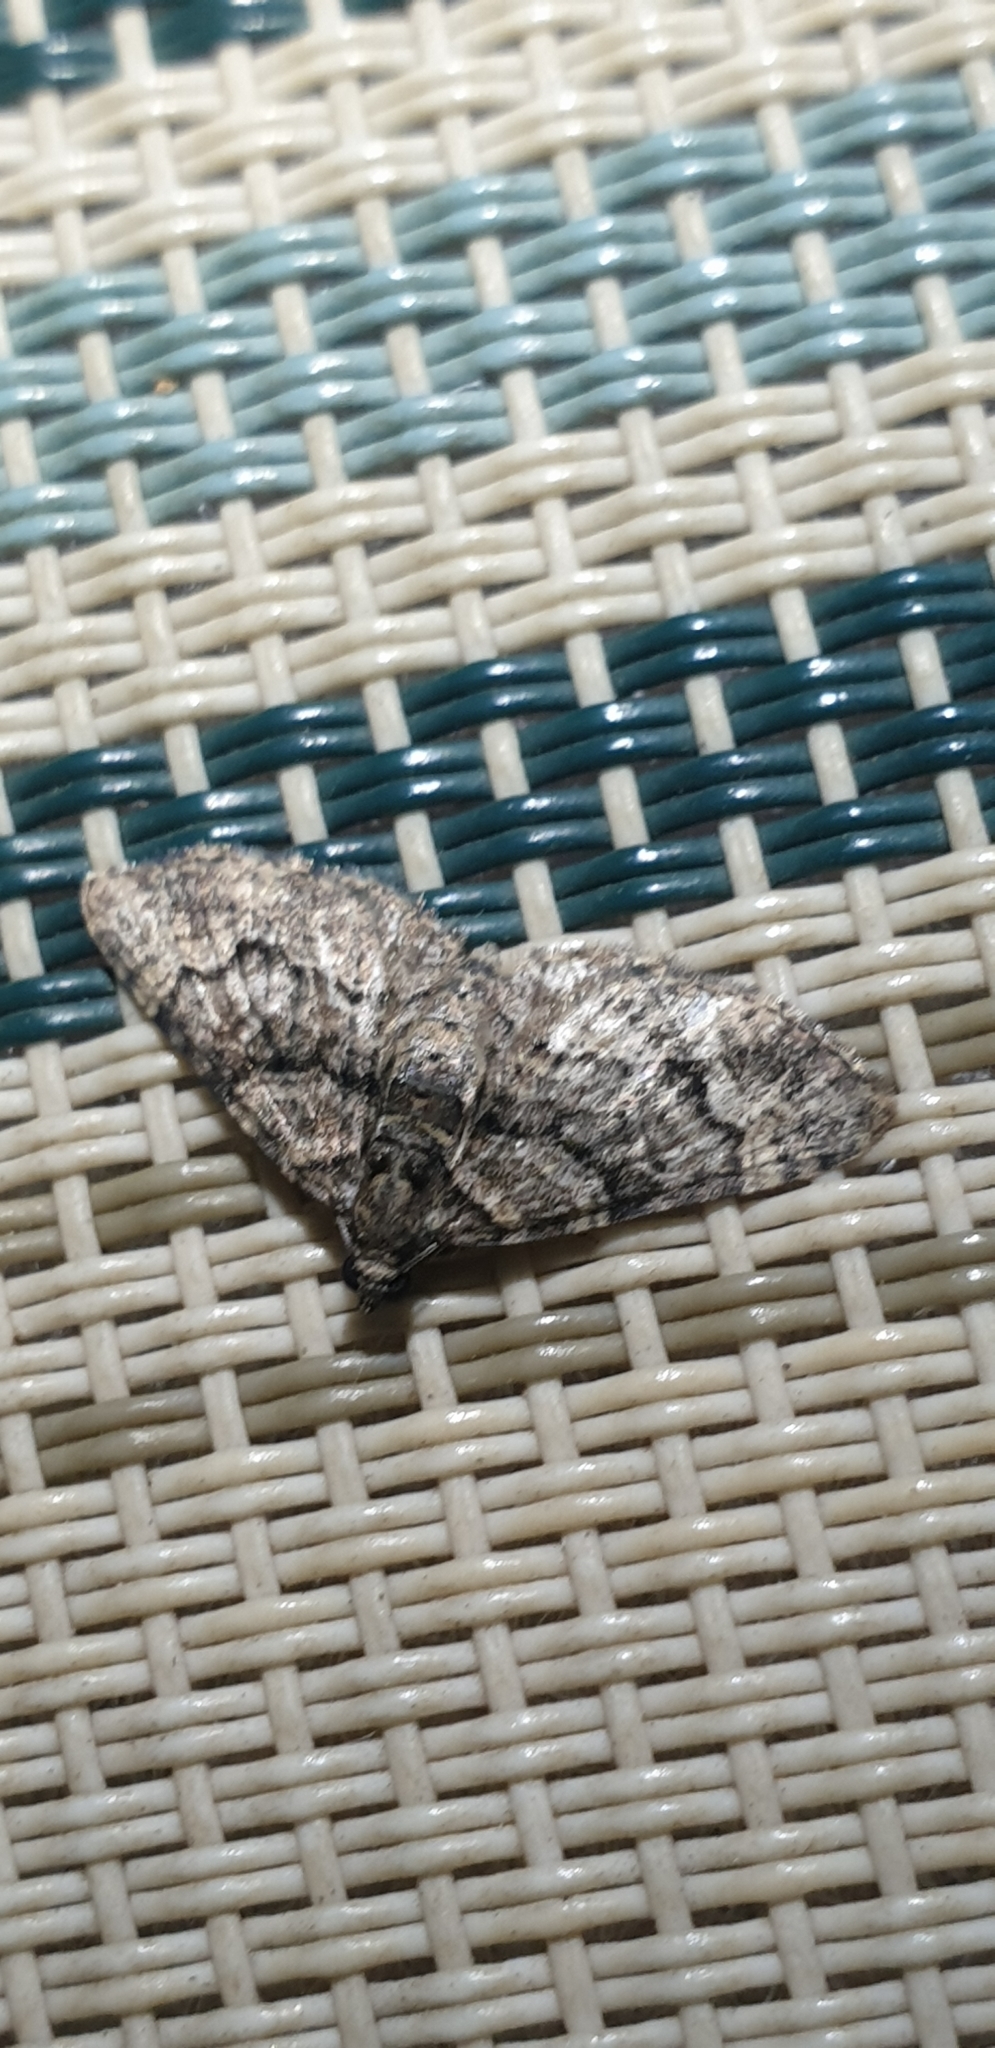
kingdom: Animalia
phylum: Arthropoda
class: Insecta
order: Lepidoptera
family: Geometridae
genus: Epyaxa
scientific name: Epyaxa sodaliata
